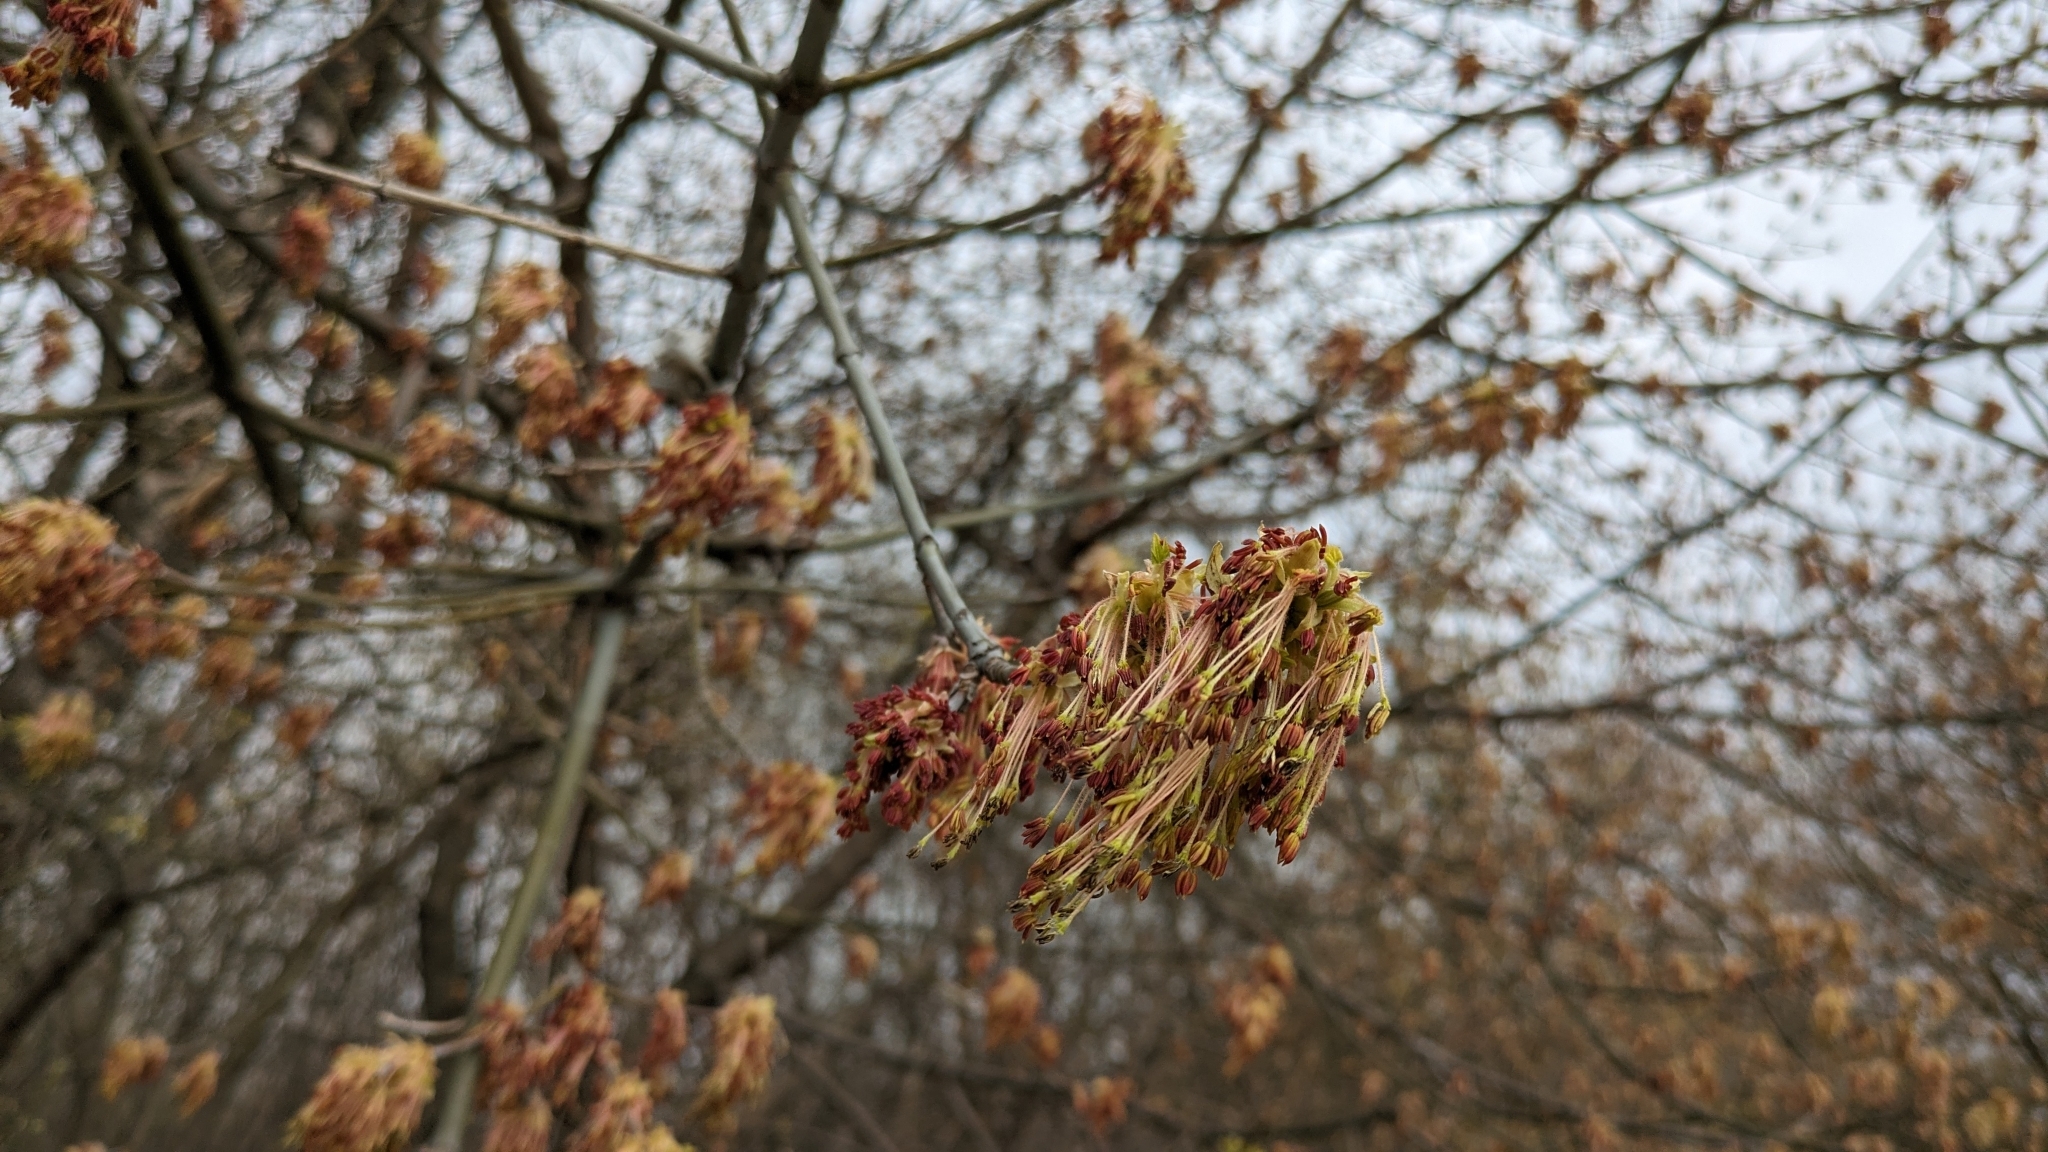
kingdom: Plantae
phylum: Tracheophyta
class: Magnoliopsida
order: Sapindales
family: Sapindaceae
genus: Acer
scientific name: Acer negundo
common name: Ashleaf maple
